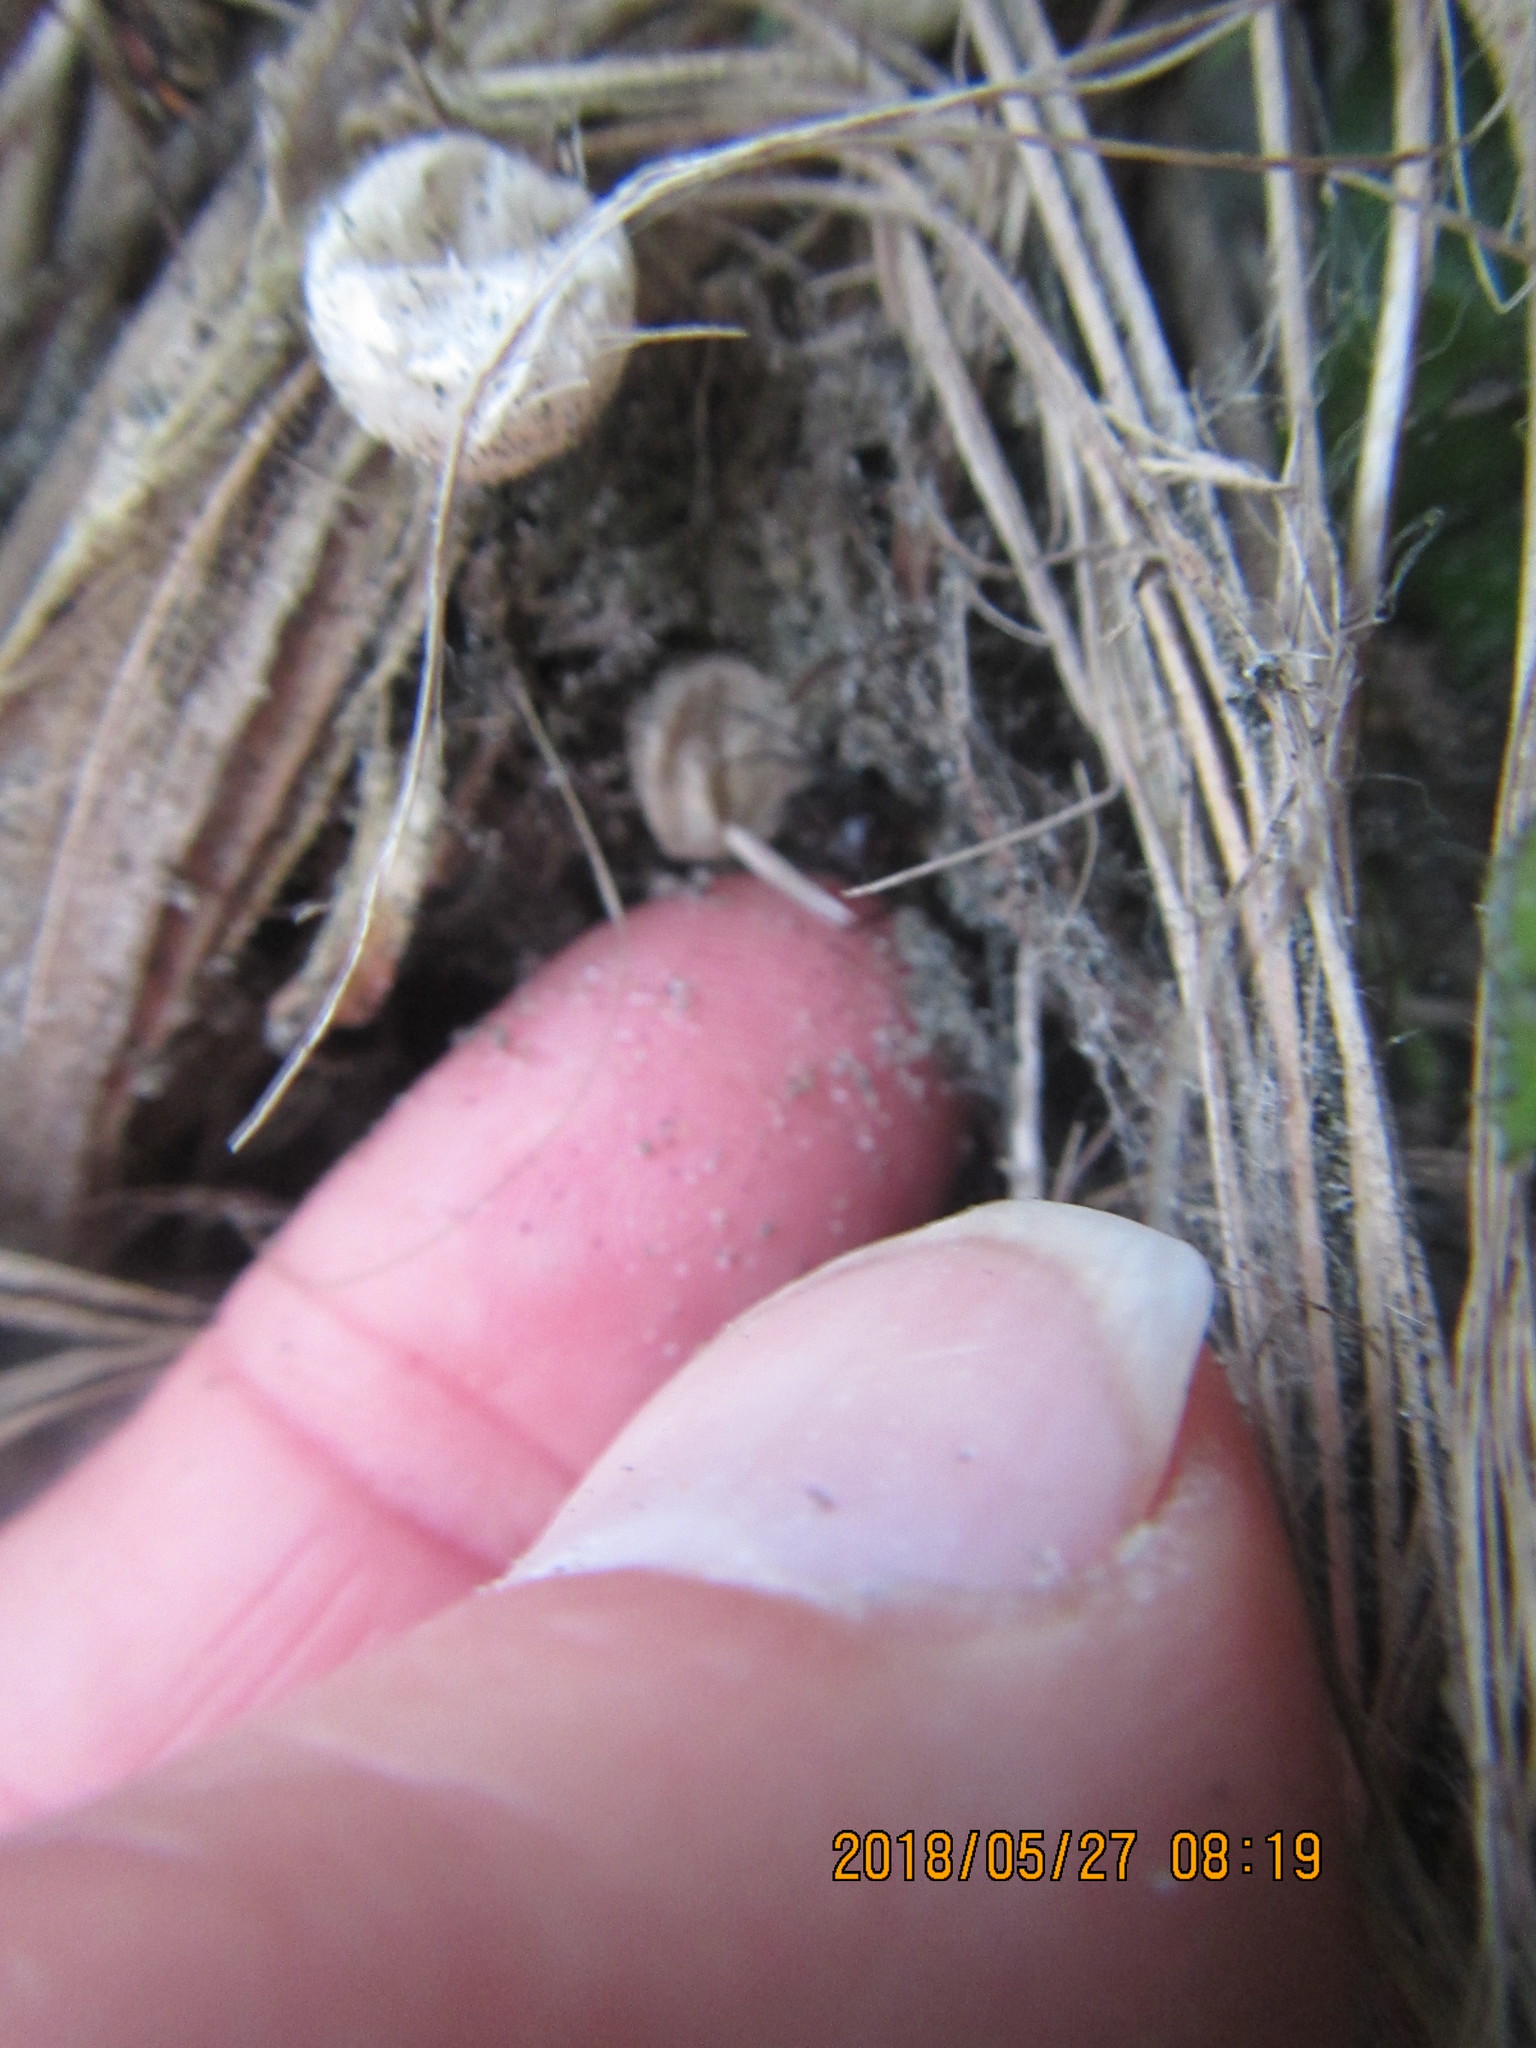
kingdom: Animalia
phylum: Arthropoda
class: Arachnida
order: Araneae
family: Theridiidae
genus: Latrodectus
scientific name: Latrodectus katipo
